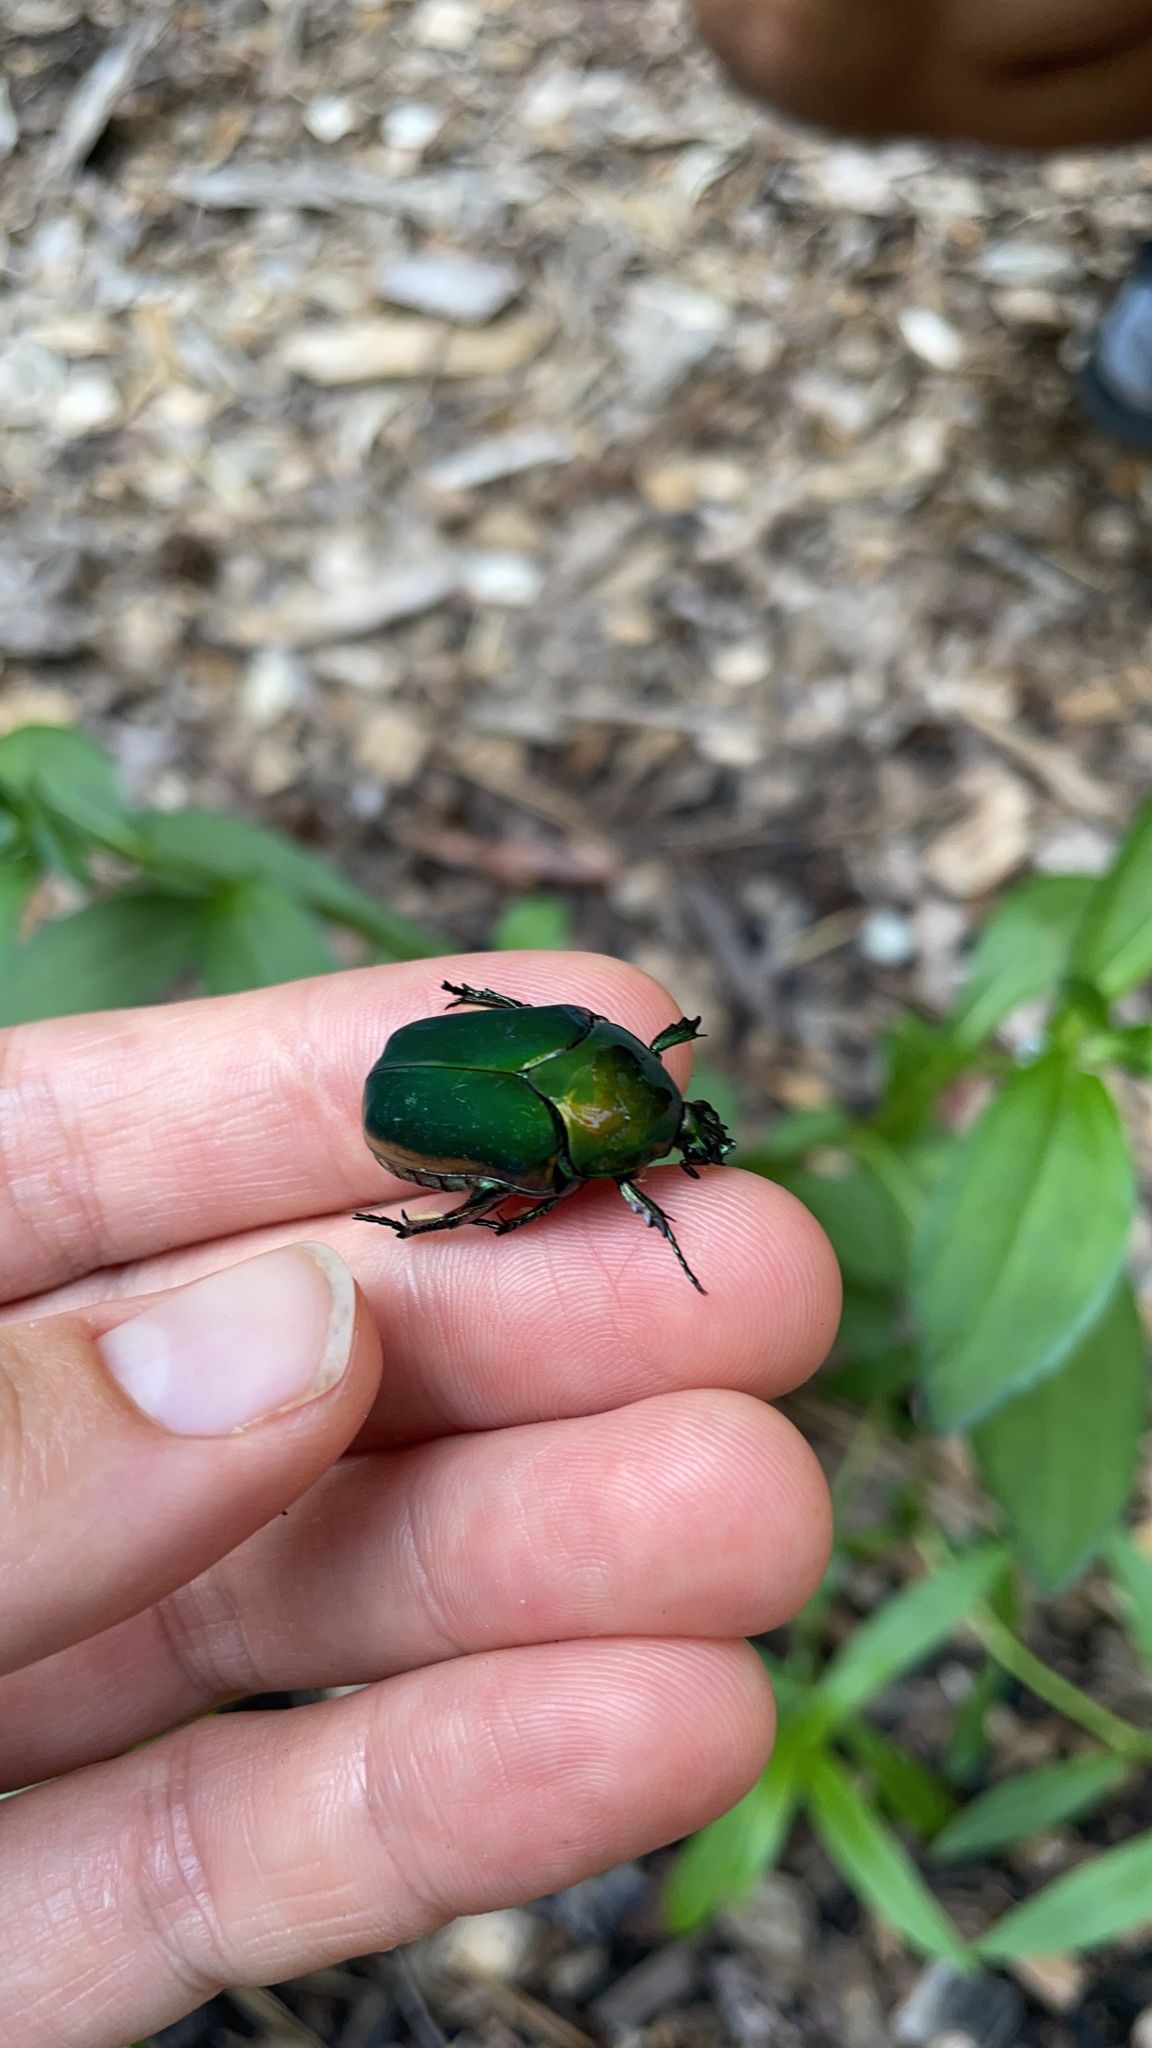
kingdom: Animalia
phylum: Arthropoda
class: Insecta
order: Coleoptera
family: Scarabaeidae
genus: Cotinis
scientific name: Cotinis nitida
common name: Common green june beetle
